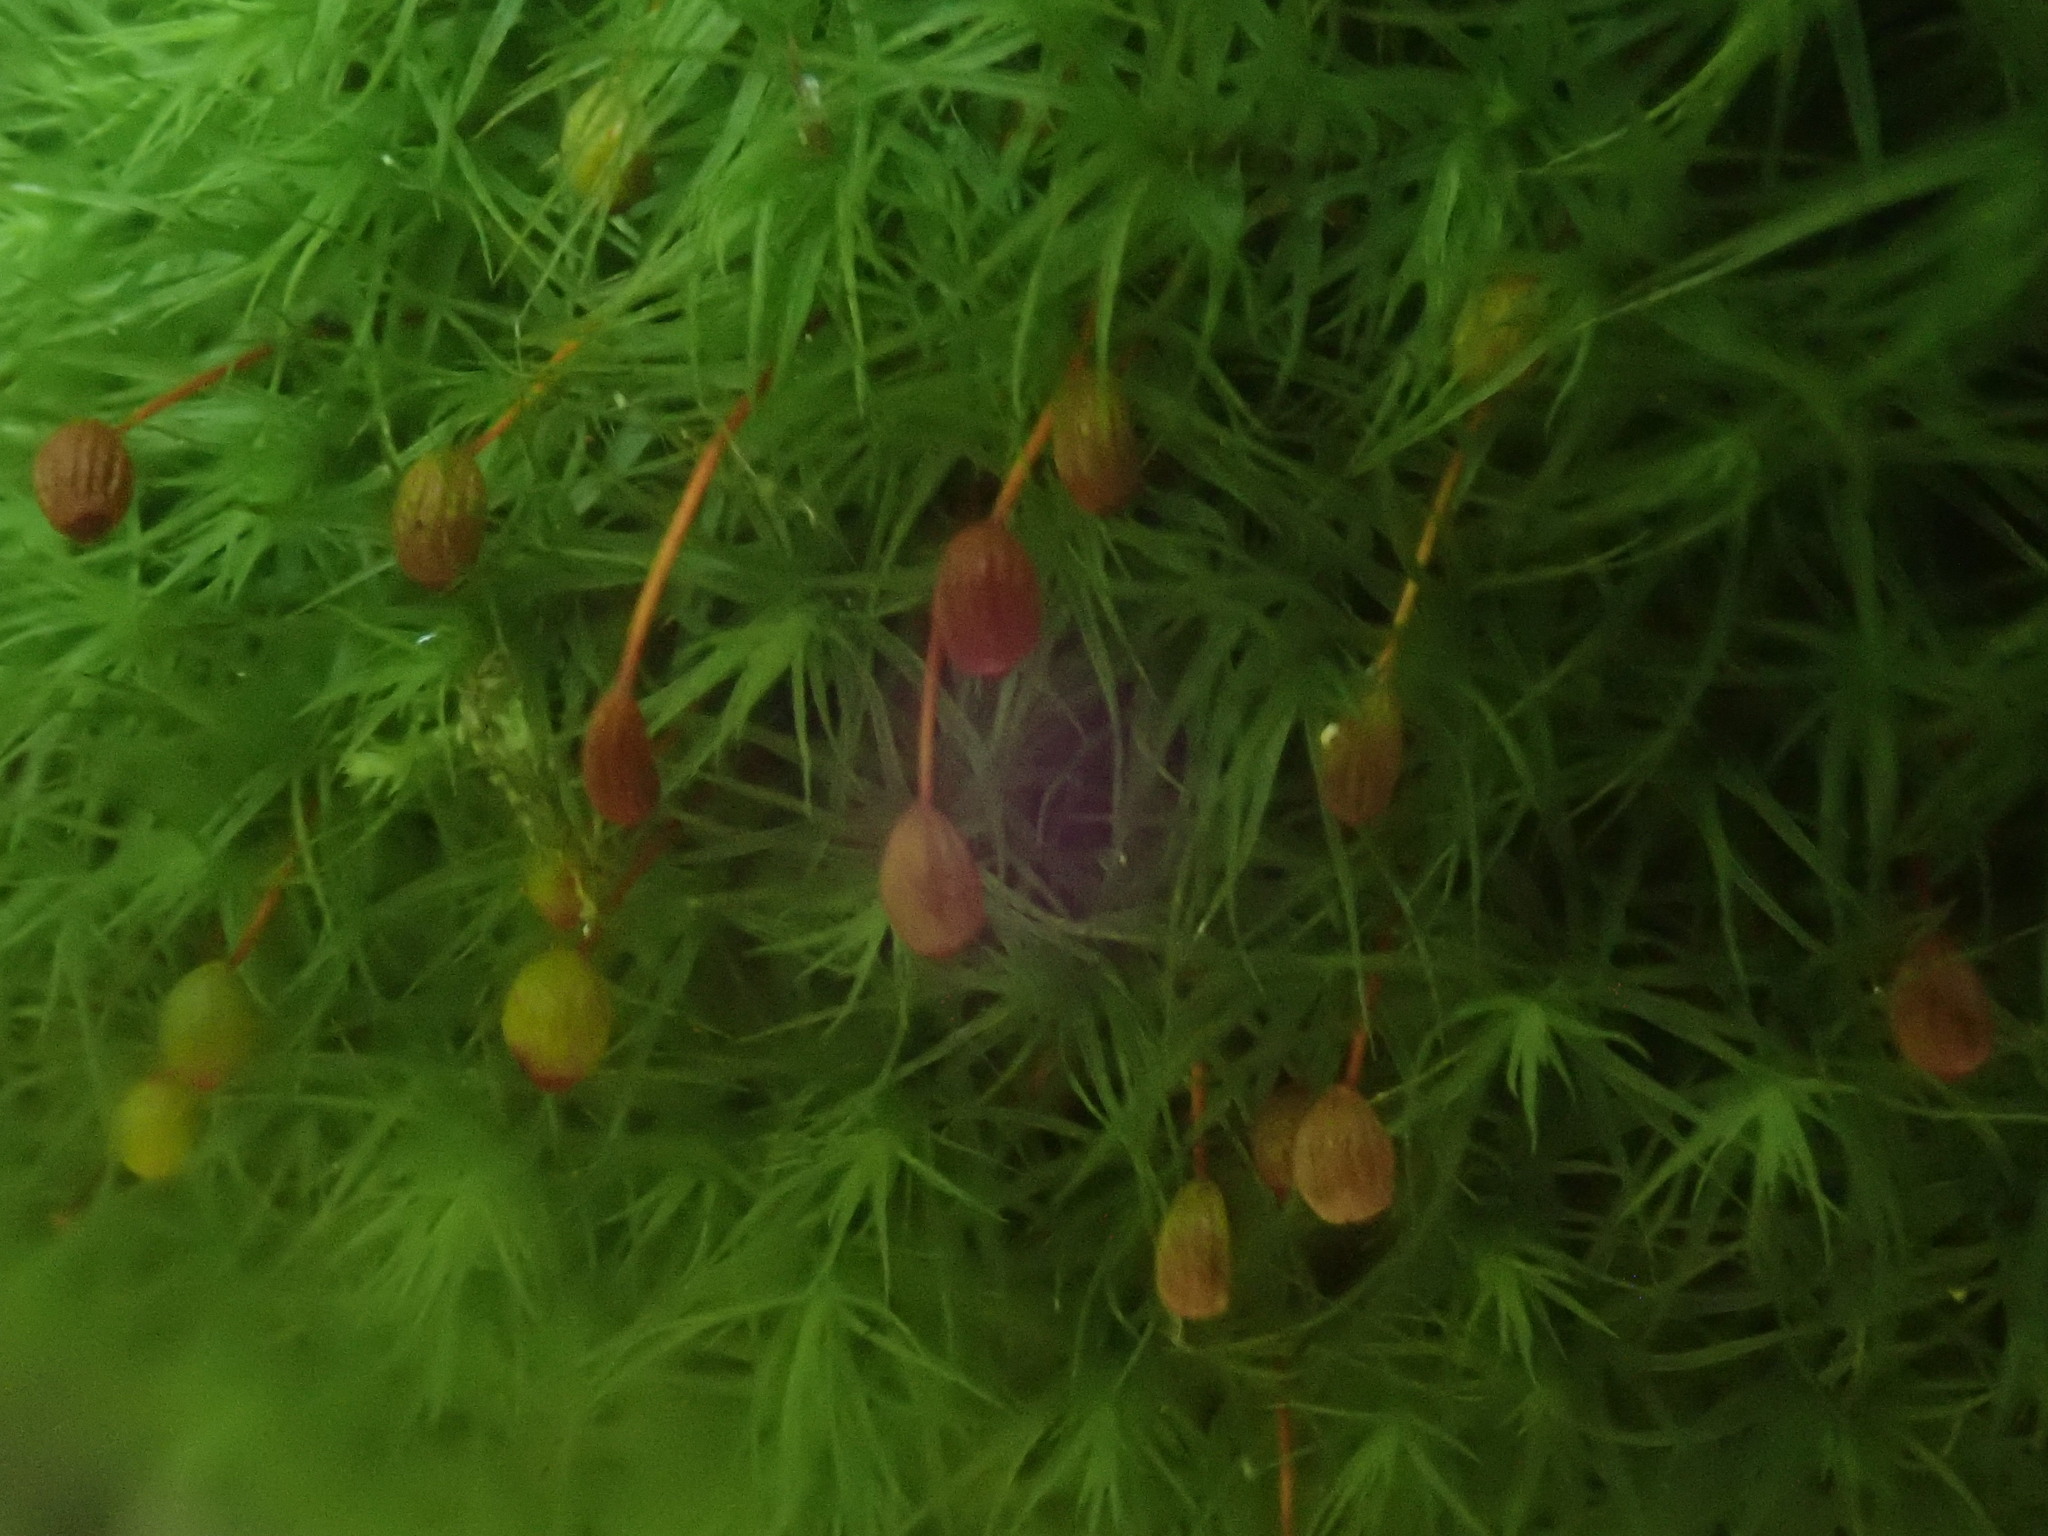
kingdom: Plantae
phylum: Bryophyta
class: Bryopsida
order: Bartramiales
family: Bartramiaceae
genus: Bartramia
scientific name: Bartramia ithyphylla
